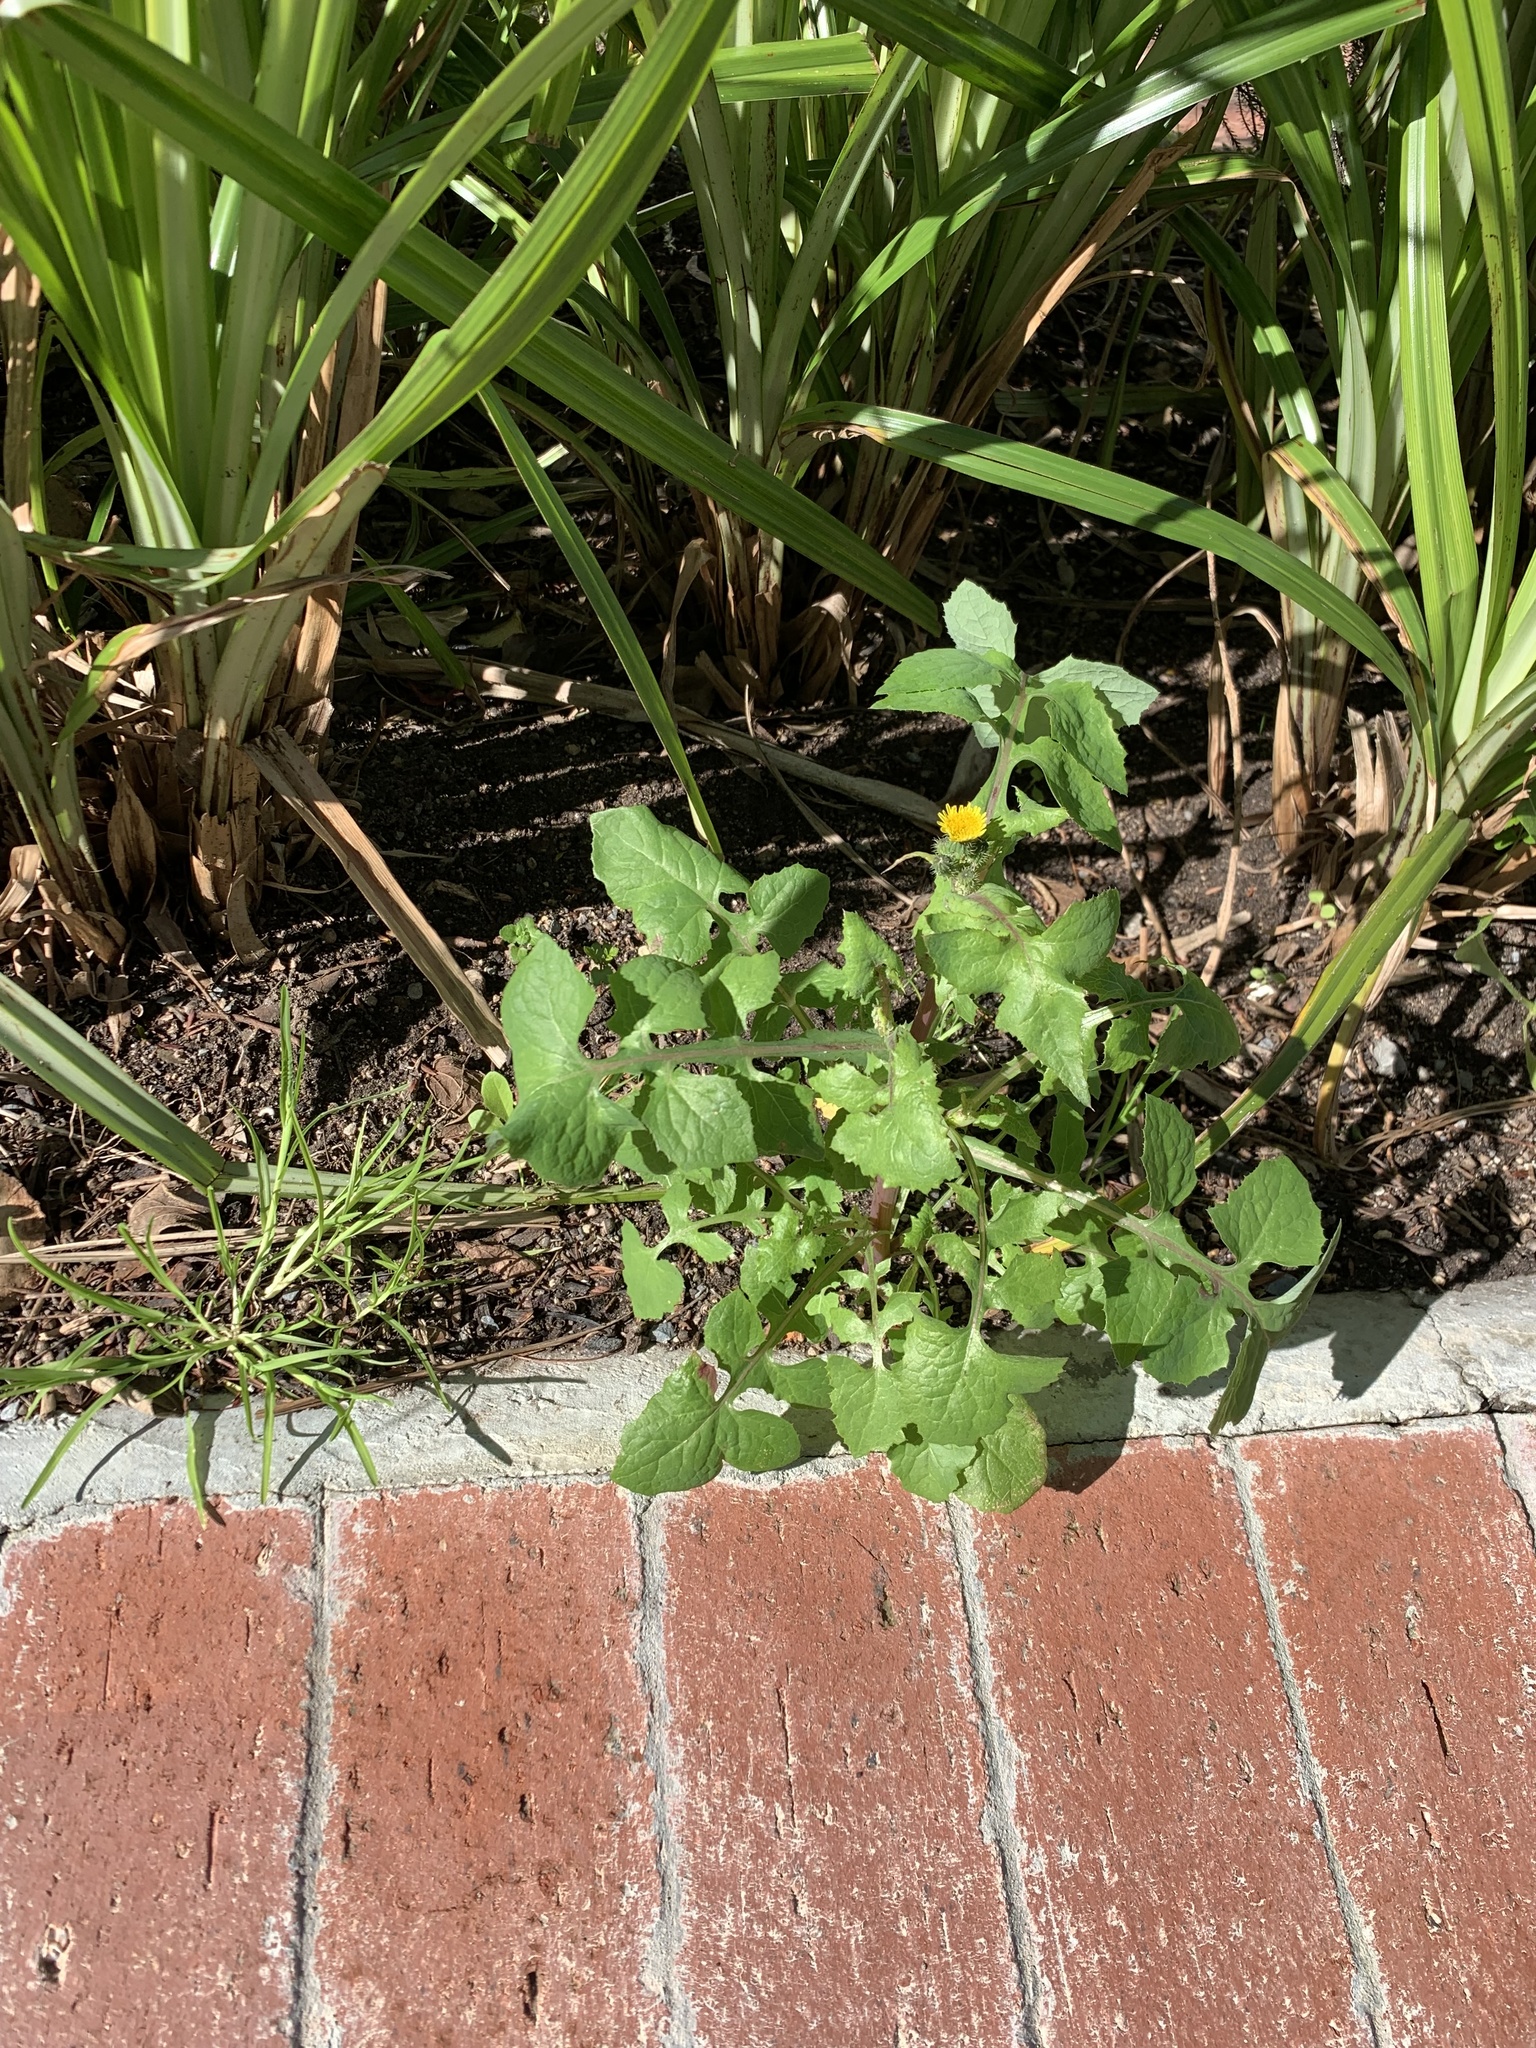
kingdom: Plantae
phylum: Tracheophyta
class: Magnoliopsida
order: Asterales
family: Asteraceae
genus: Sonchus
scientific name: Sonchus oleraceus
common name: Common sowthistle
